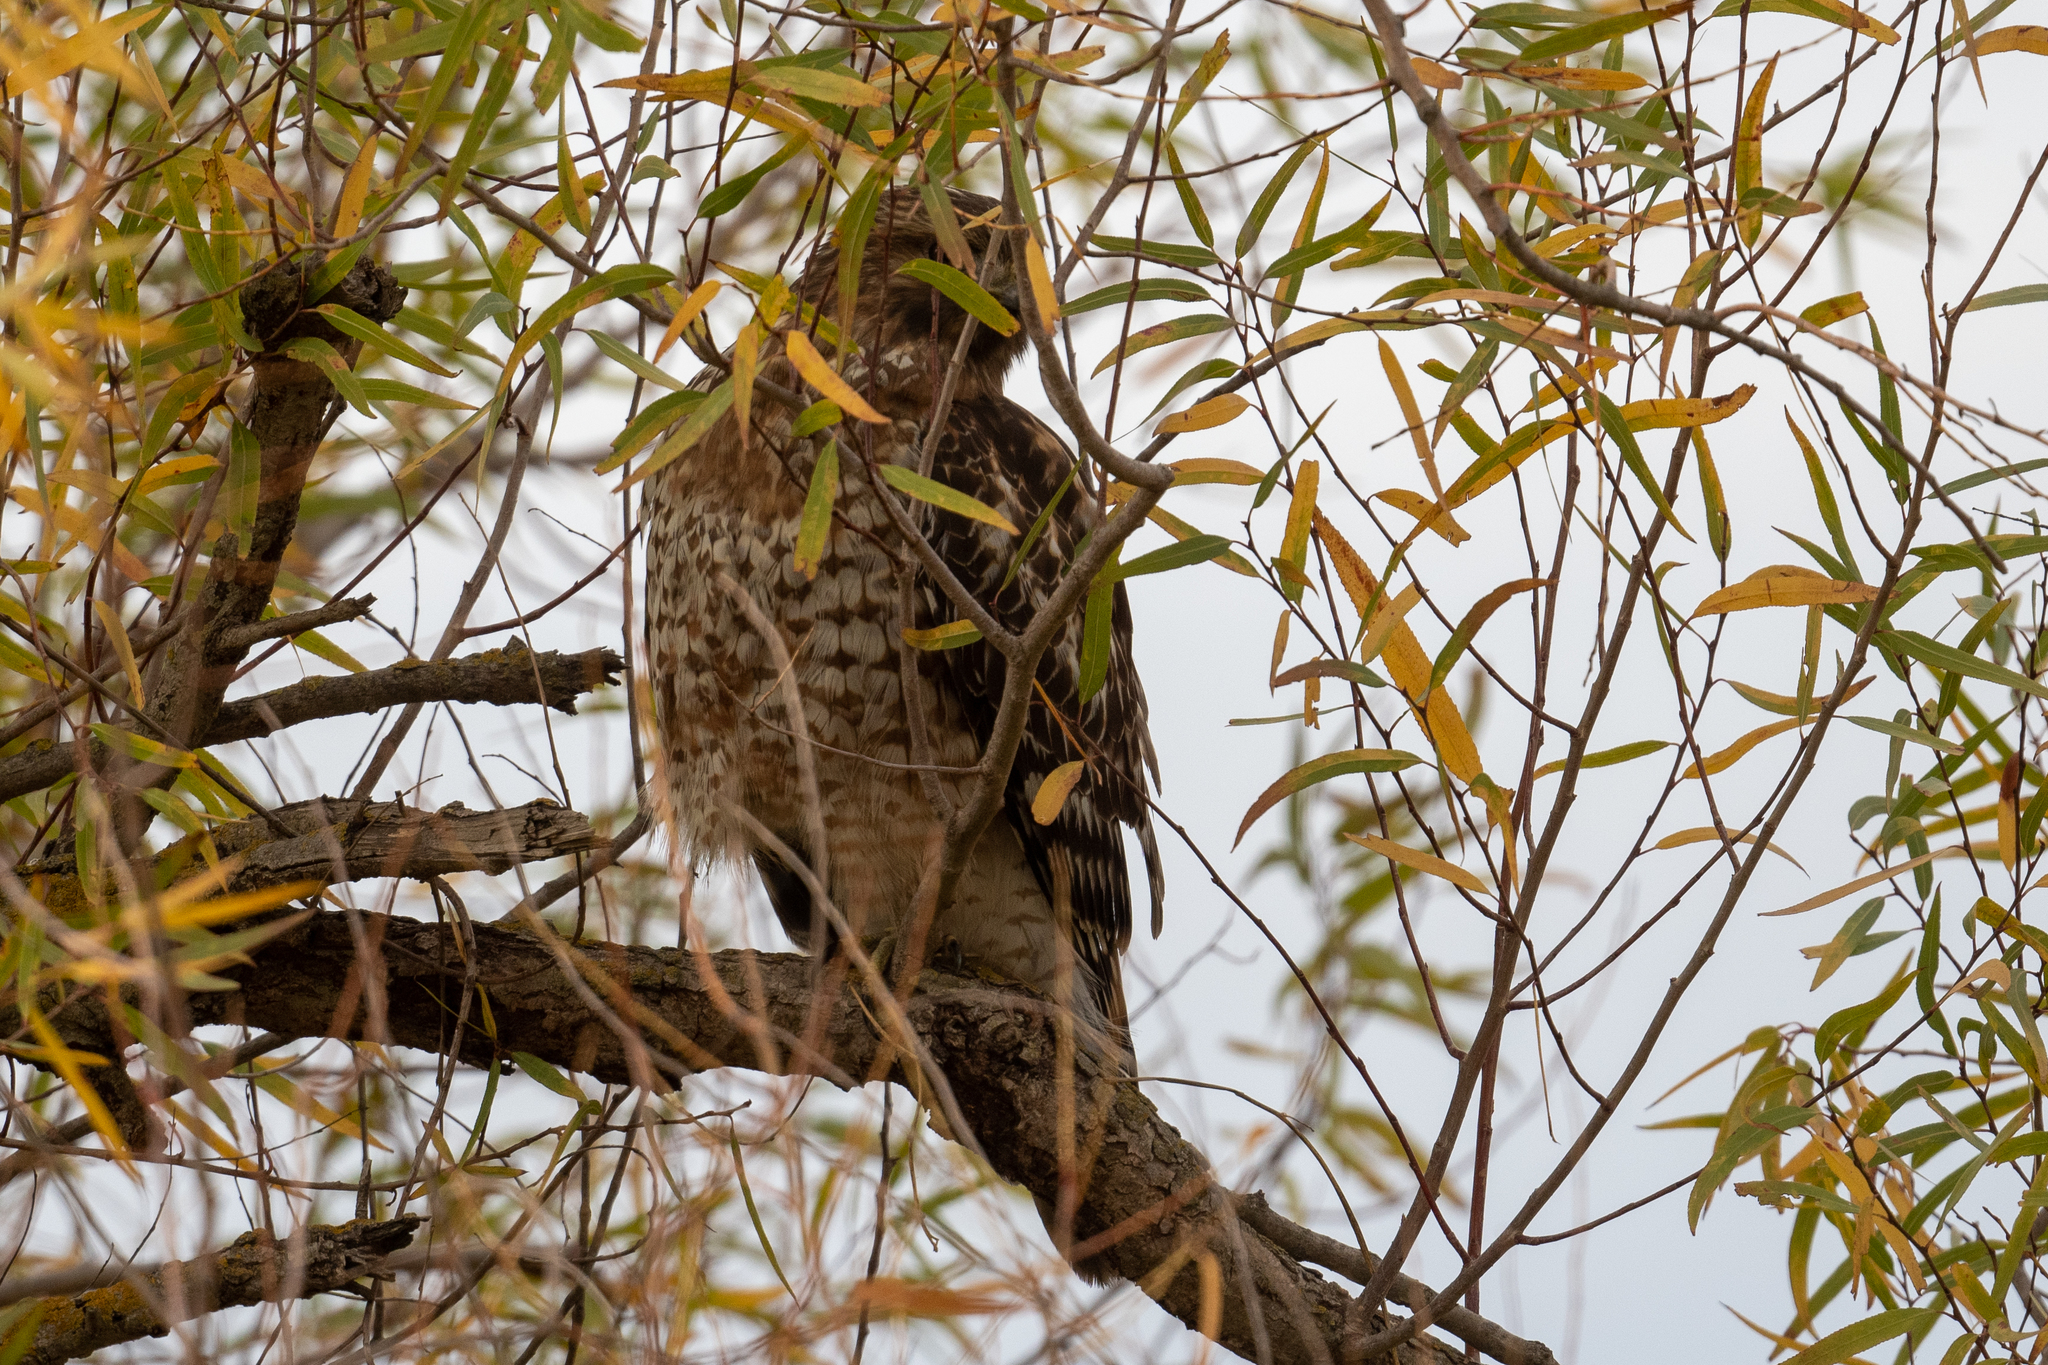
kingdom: Animalia
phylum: Chordata
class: Aves
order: Accipitriformes
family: Accipitridae
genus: Buteo
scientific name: Buteo lineatus
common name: Red-shouldered hawk
